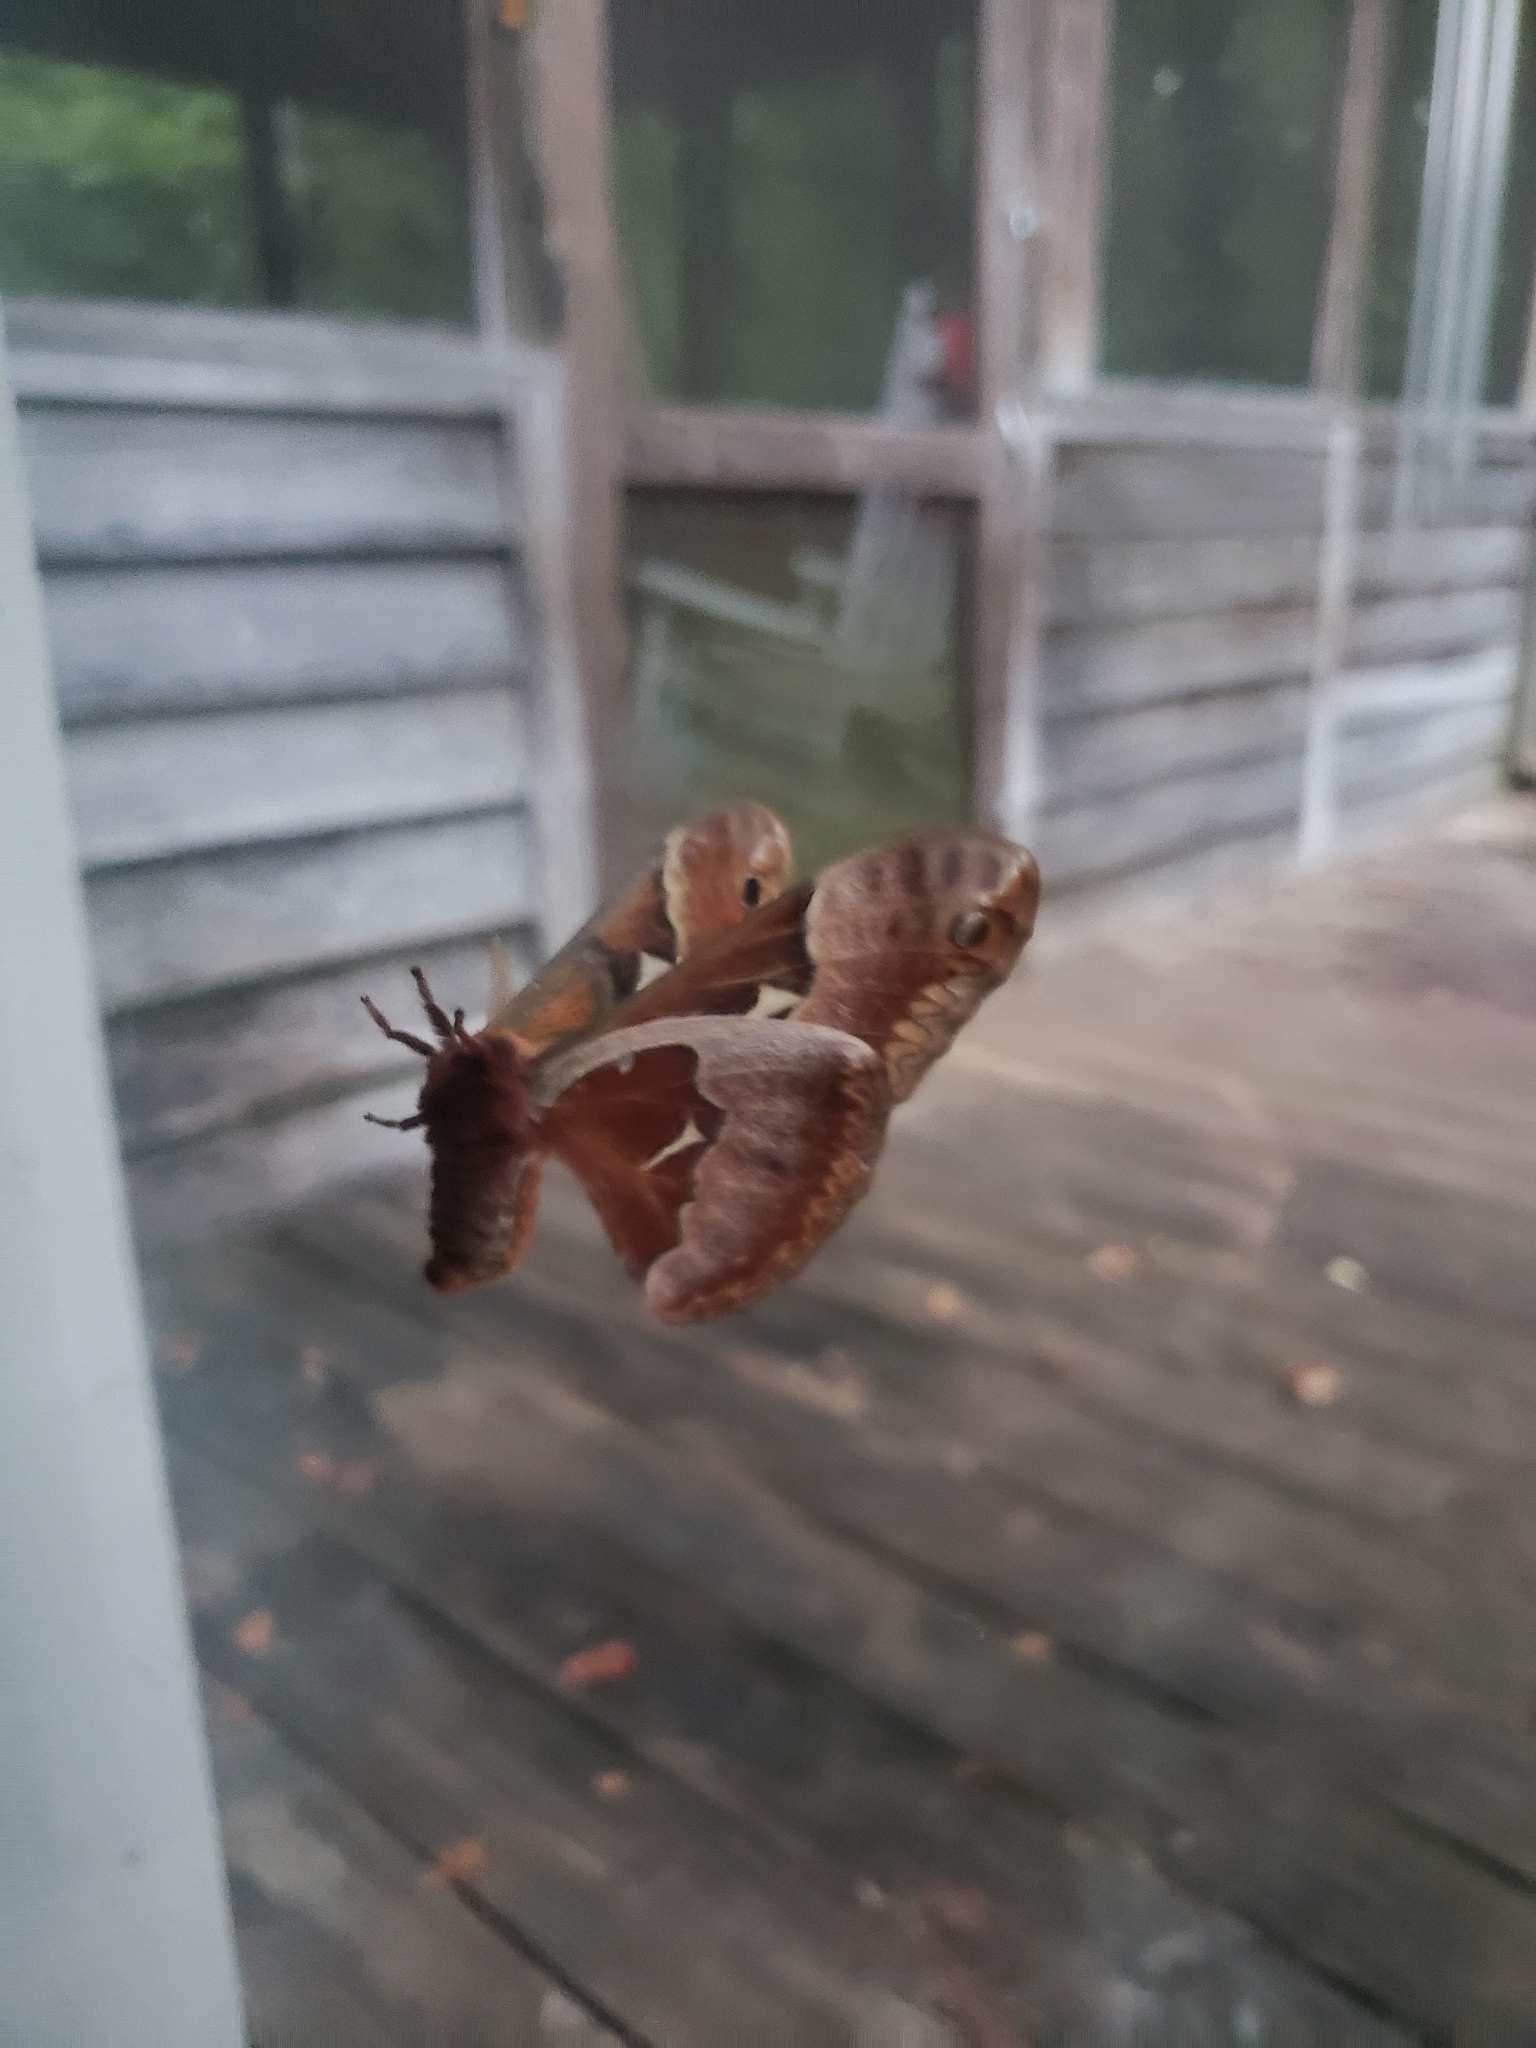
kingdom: Animalia
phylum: Arthropoda
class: Insecta
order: Lepidoptera
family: Saturniidae
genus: Callosamia
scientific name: Callosamia angulifera
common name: Tulip tree silkmoth
